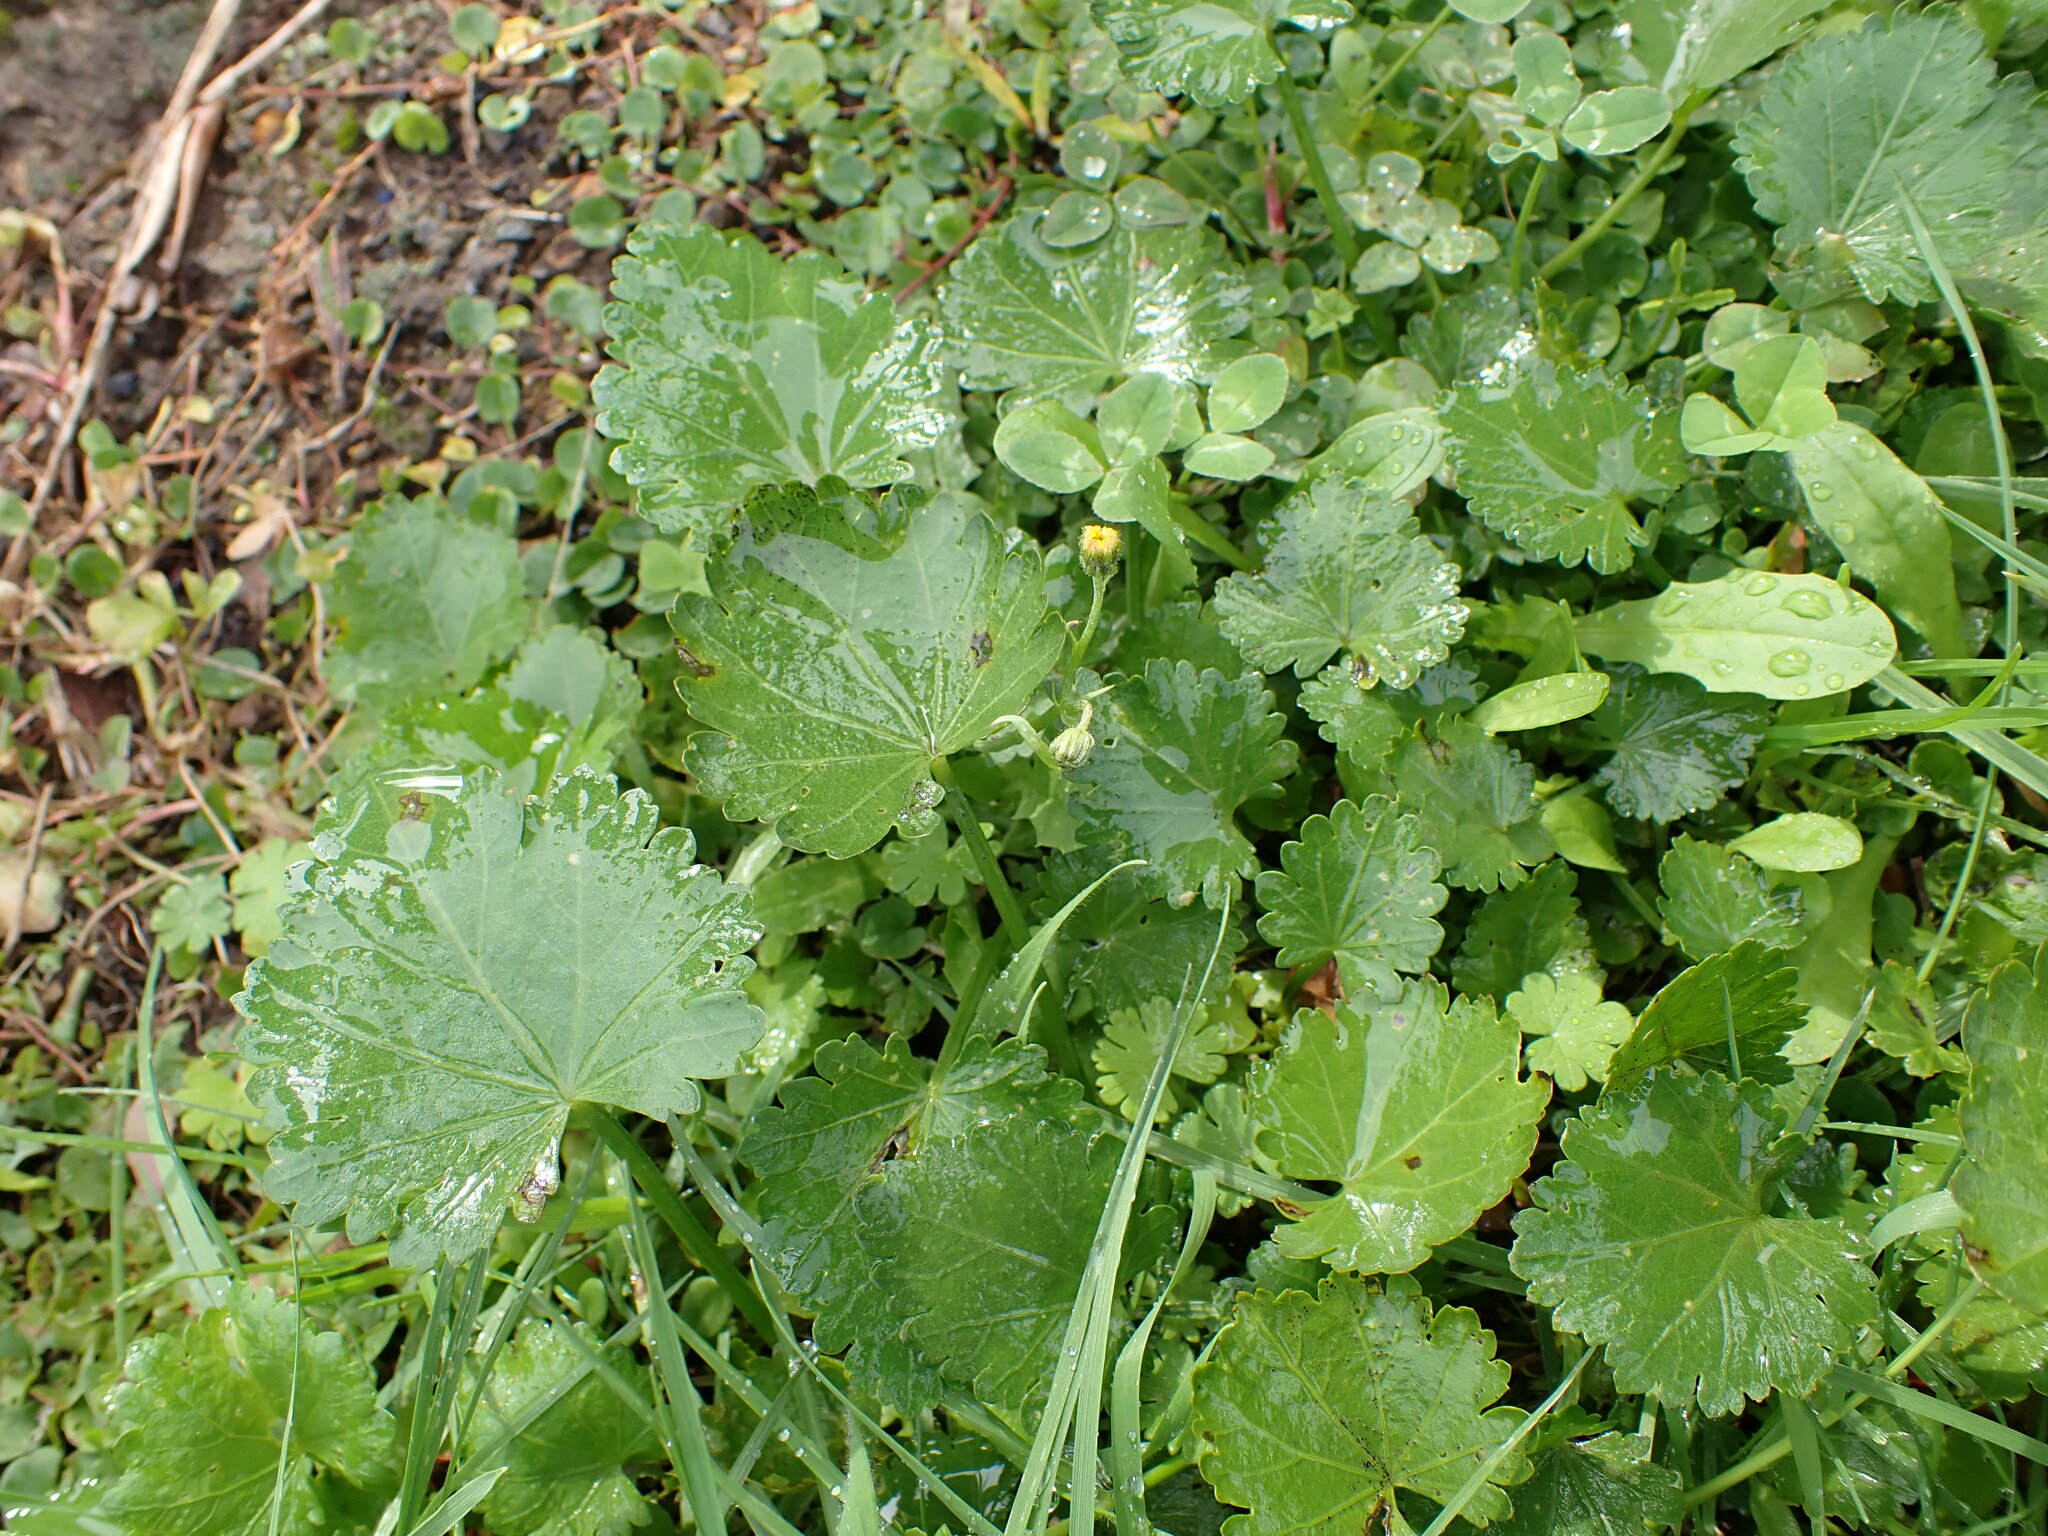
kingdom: Plantae
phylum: Tracheophyta
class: Magnoliopsida
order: Malvales
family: Malvaceae
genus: Modiola
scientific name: Modiola caroliniana
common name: Carolina bristlemallow
